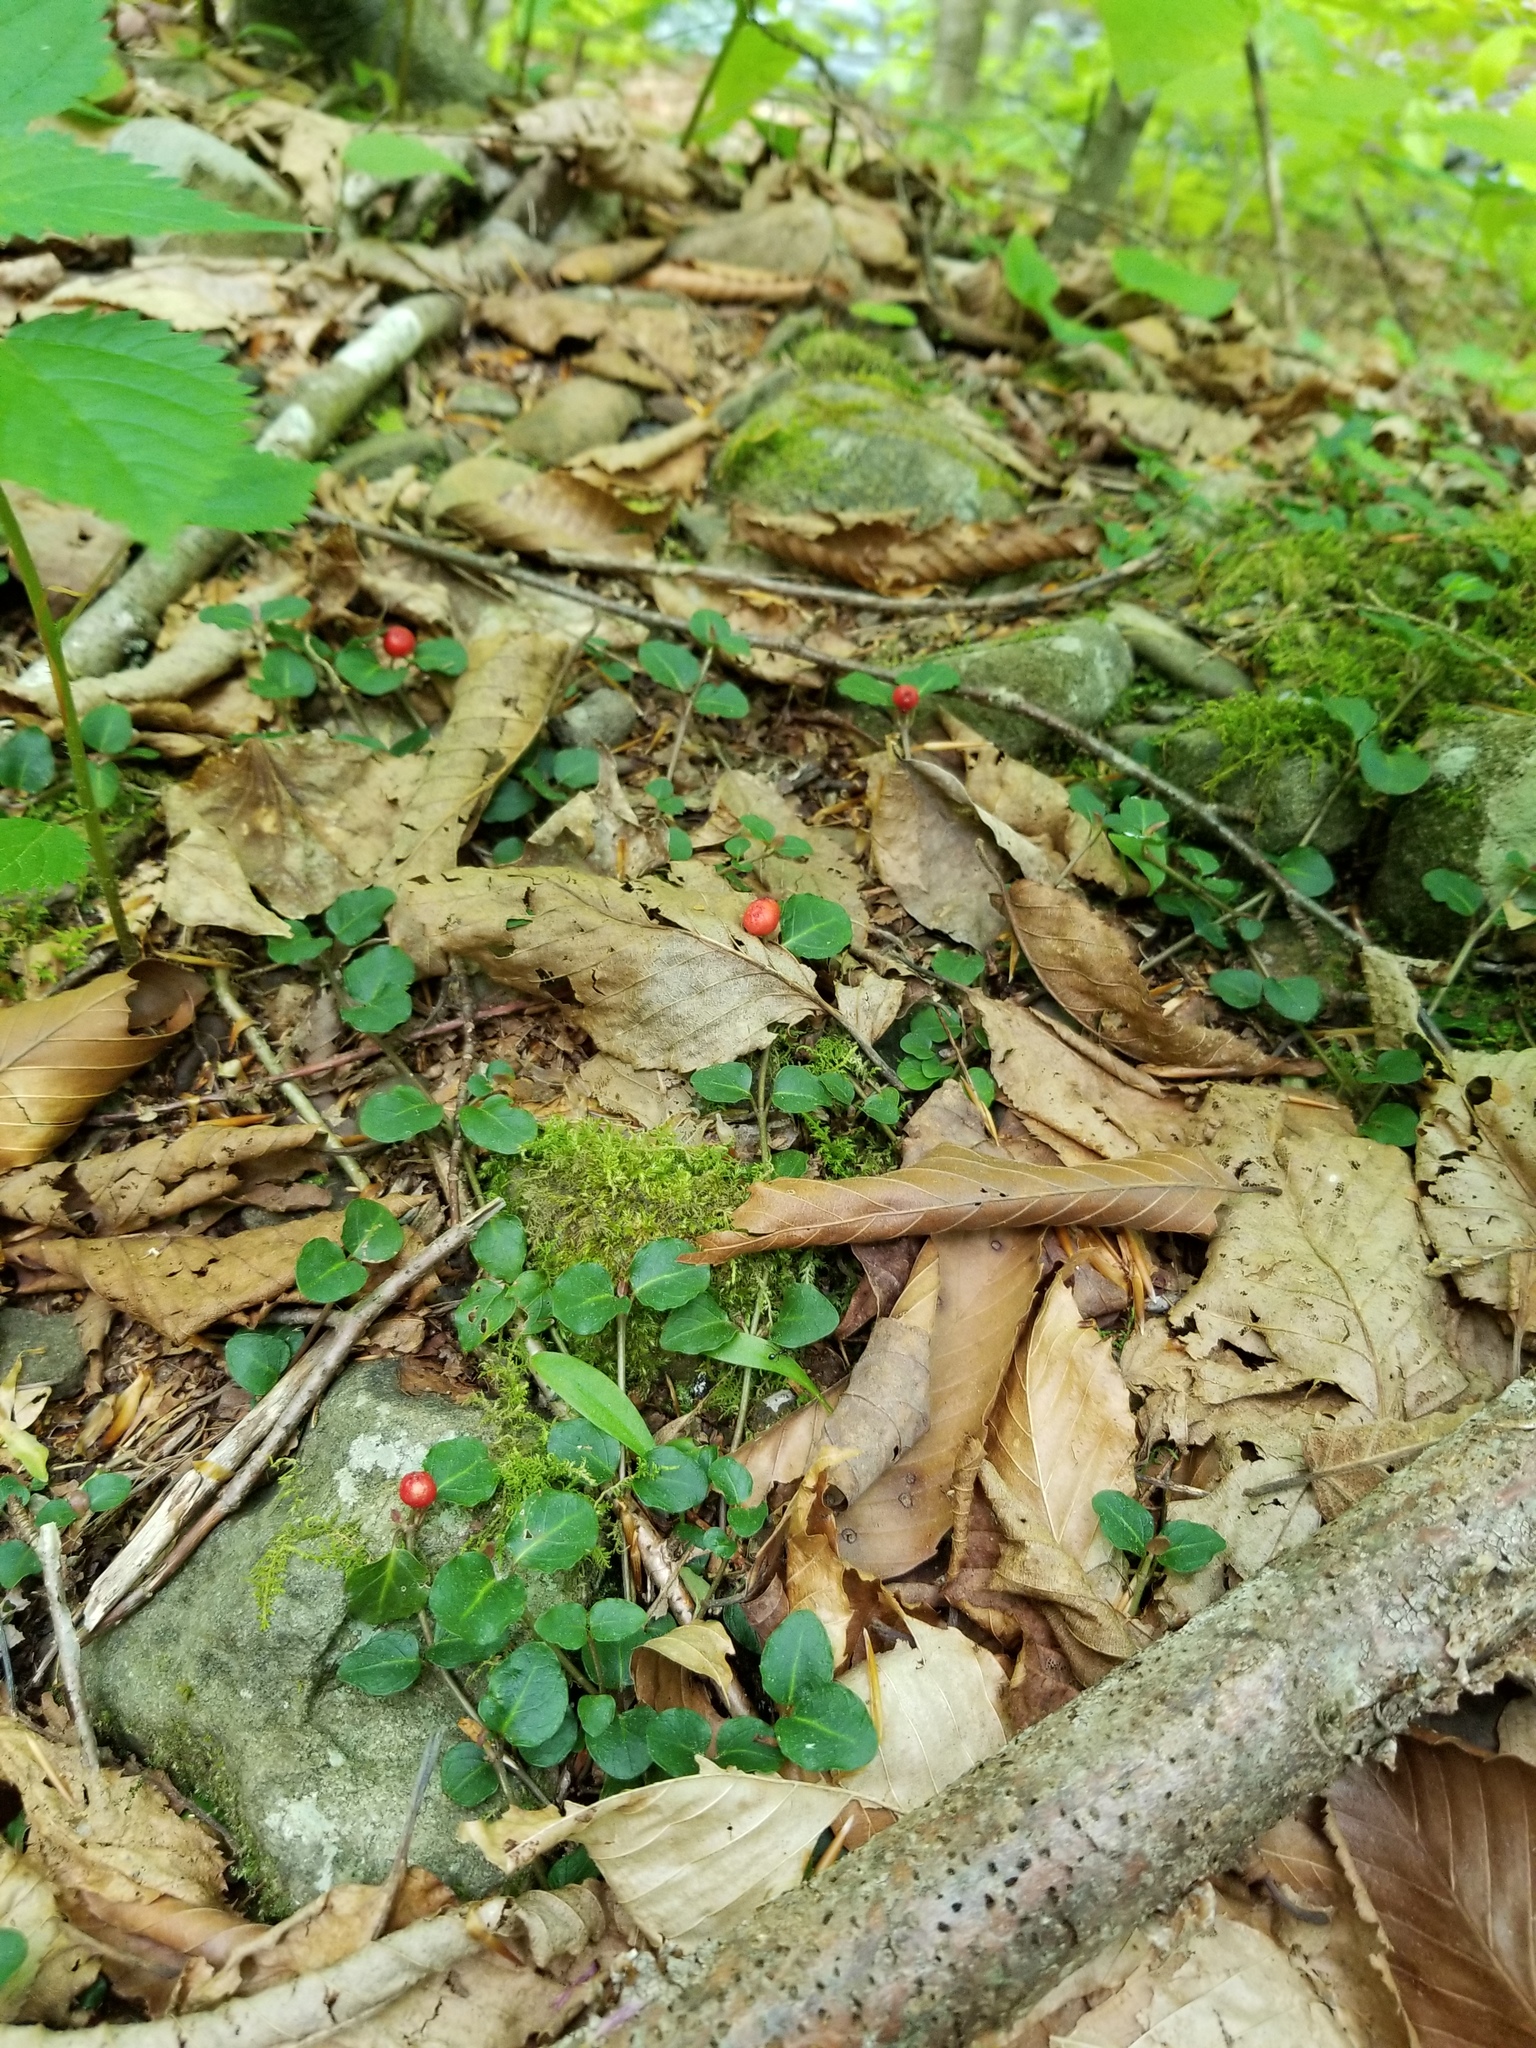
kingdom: Plantae
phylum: Tracheophyta
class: Magnoliopsida
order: Gentianales
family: Rubiaceae
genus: Mitchella
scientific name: Mitchella repens
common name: Partridge-berry
